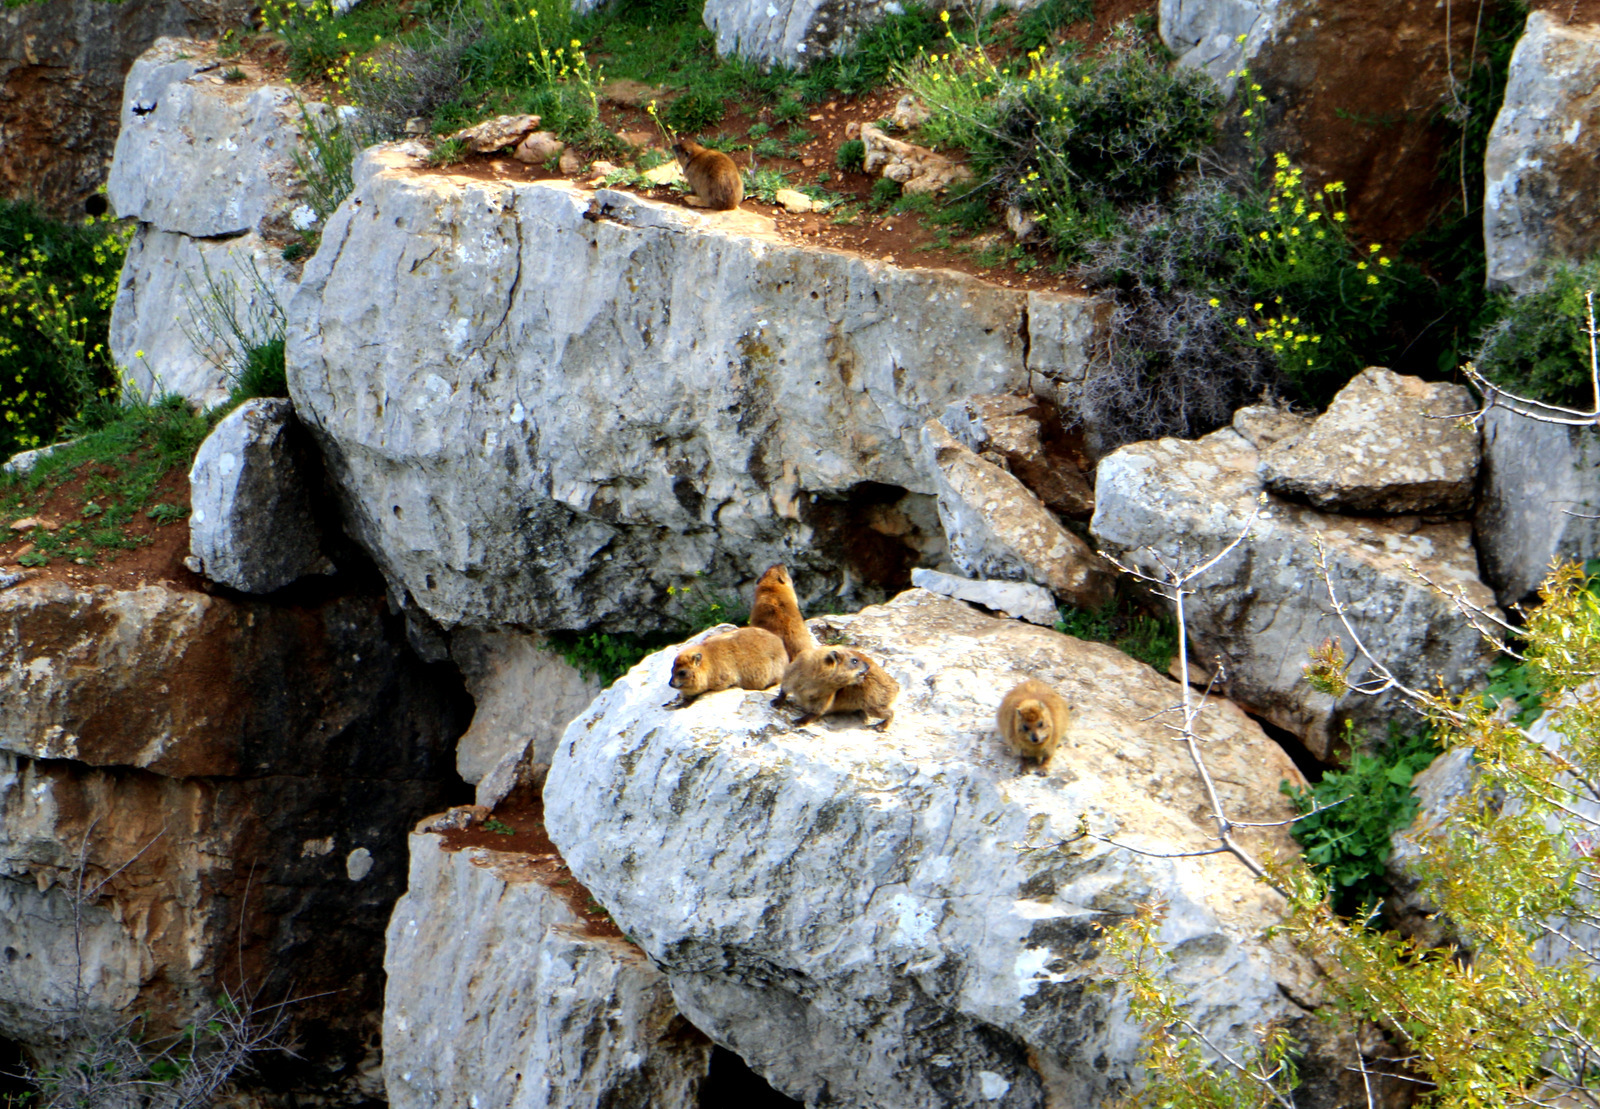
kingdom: Animalia
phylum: Chordata
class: Mammalia
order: Hyracoidea
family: Procaviidae
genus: Procavia
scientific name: Procavia capensis
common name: Rock hyrax
